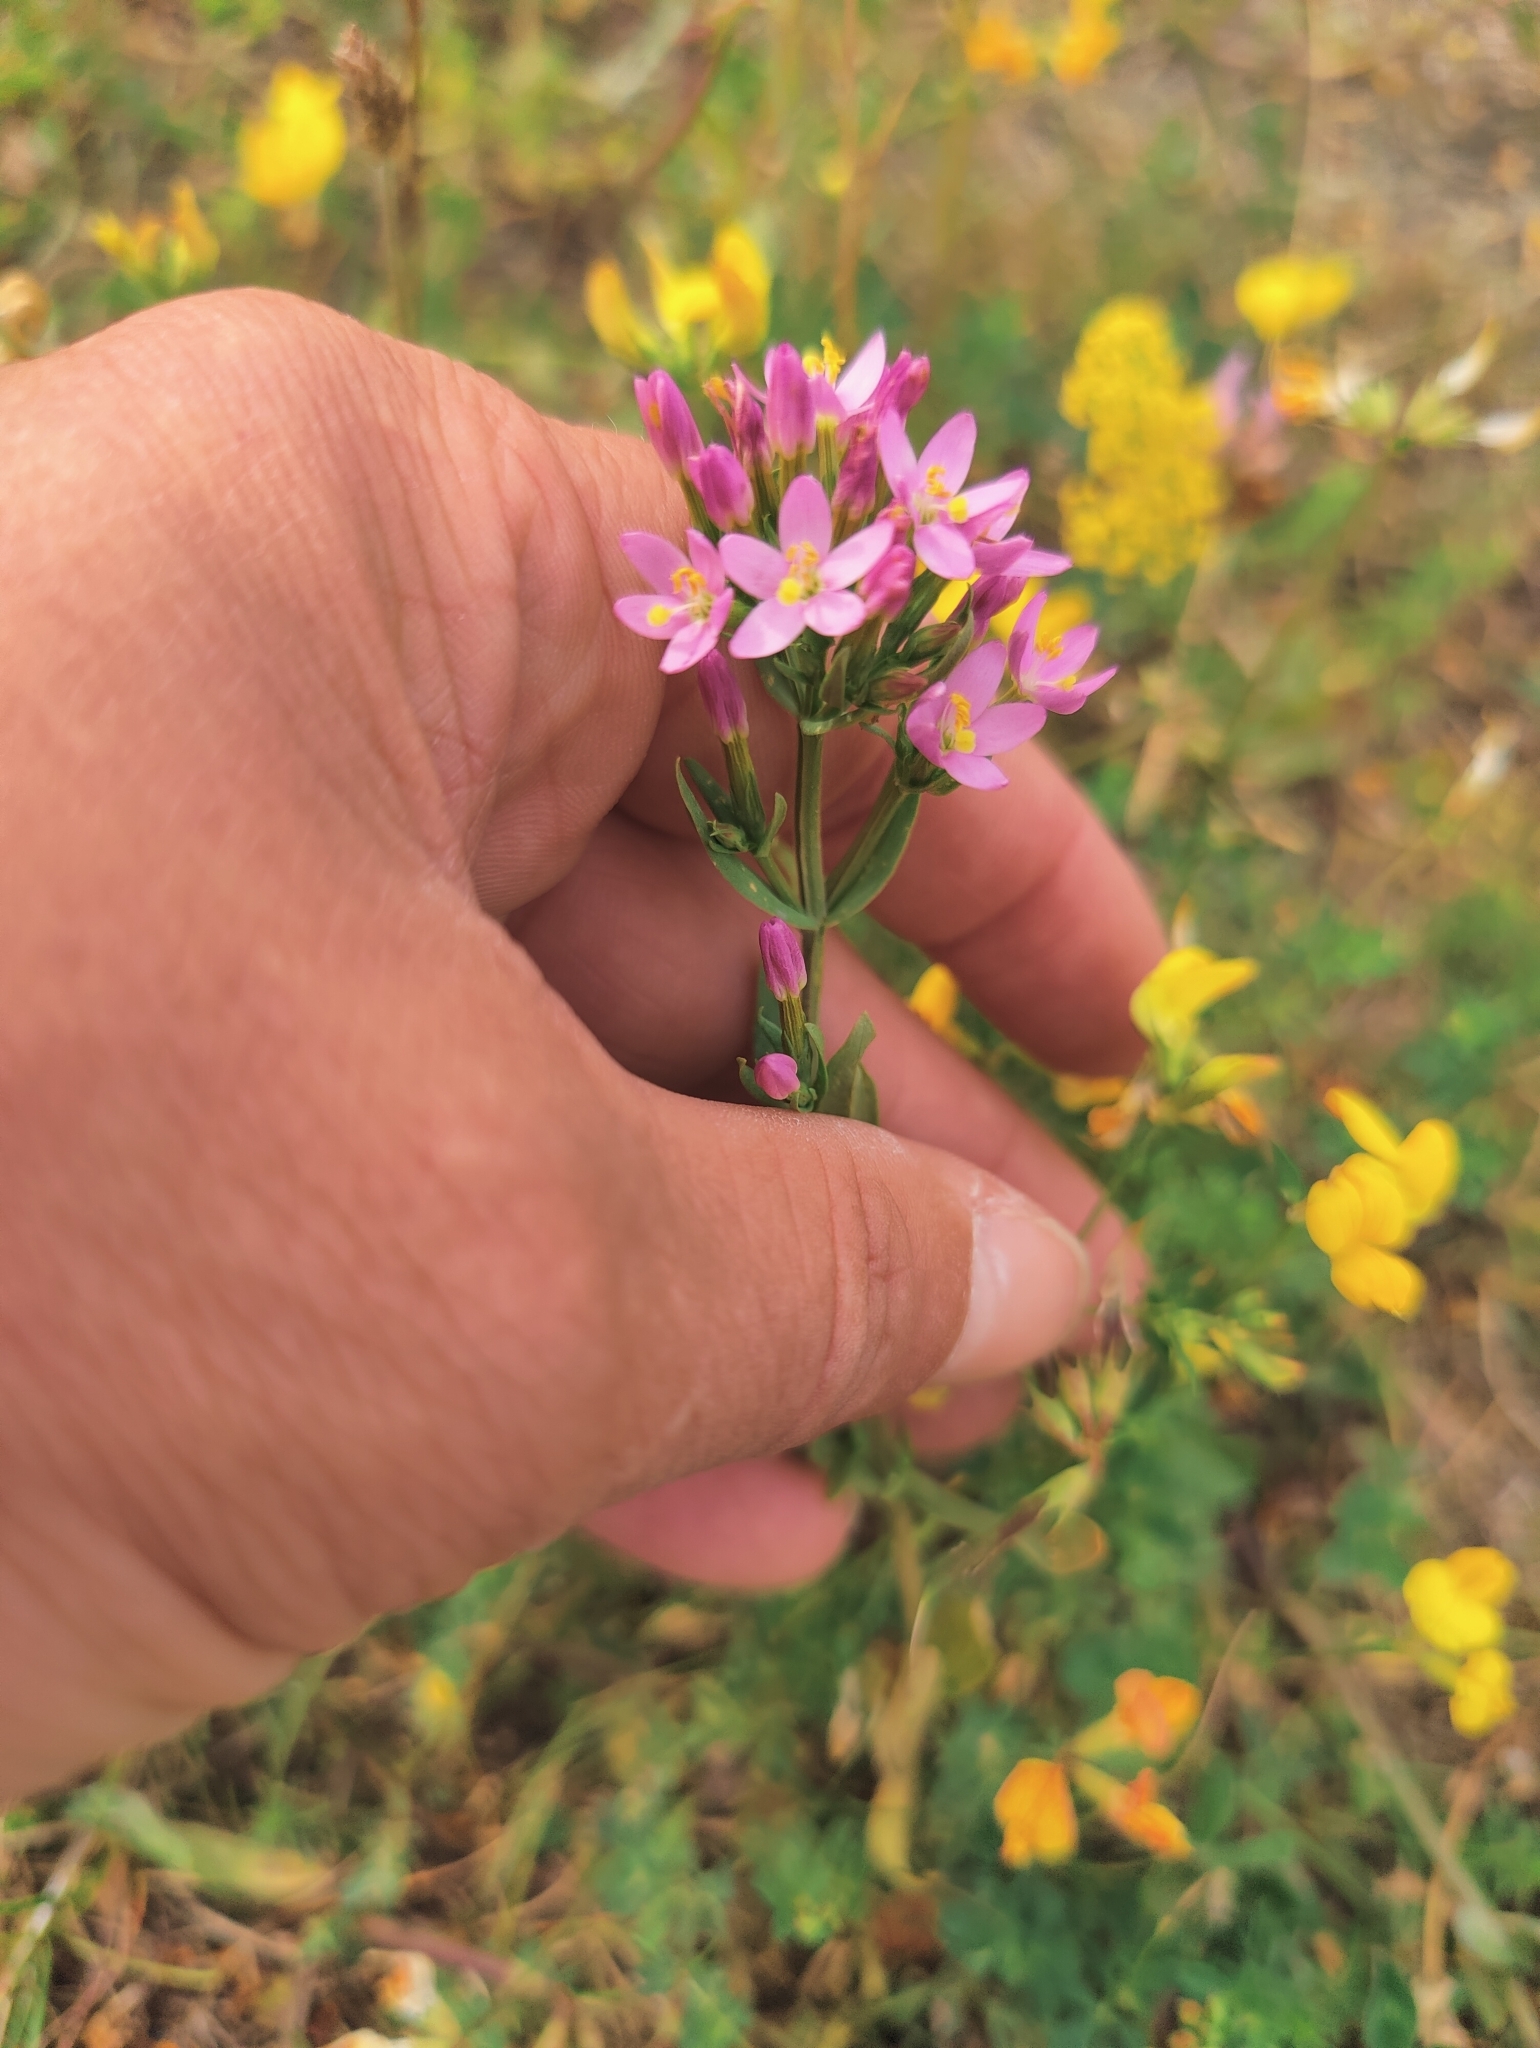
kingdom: Plantae
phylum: Tracheophyta
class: Magnoliopsida
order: Gentianales
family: Gentianaceae
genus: Centaurium
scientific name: Centaurium erythraea
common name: Common centaury
